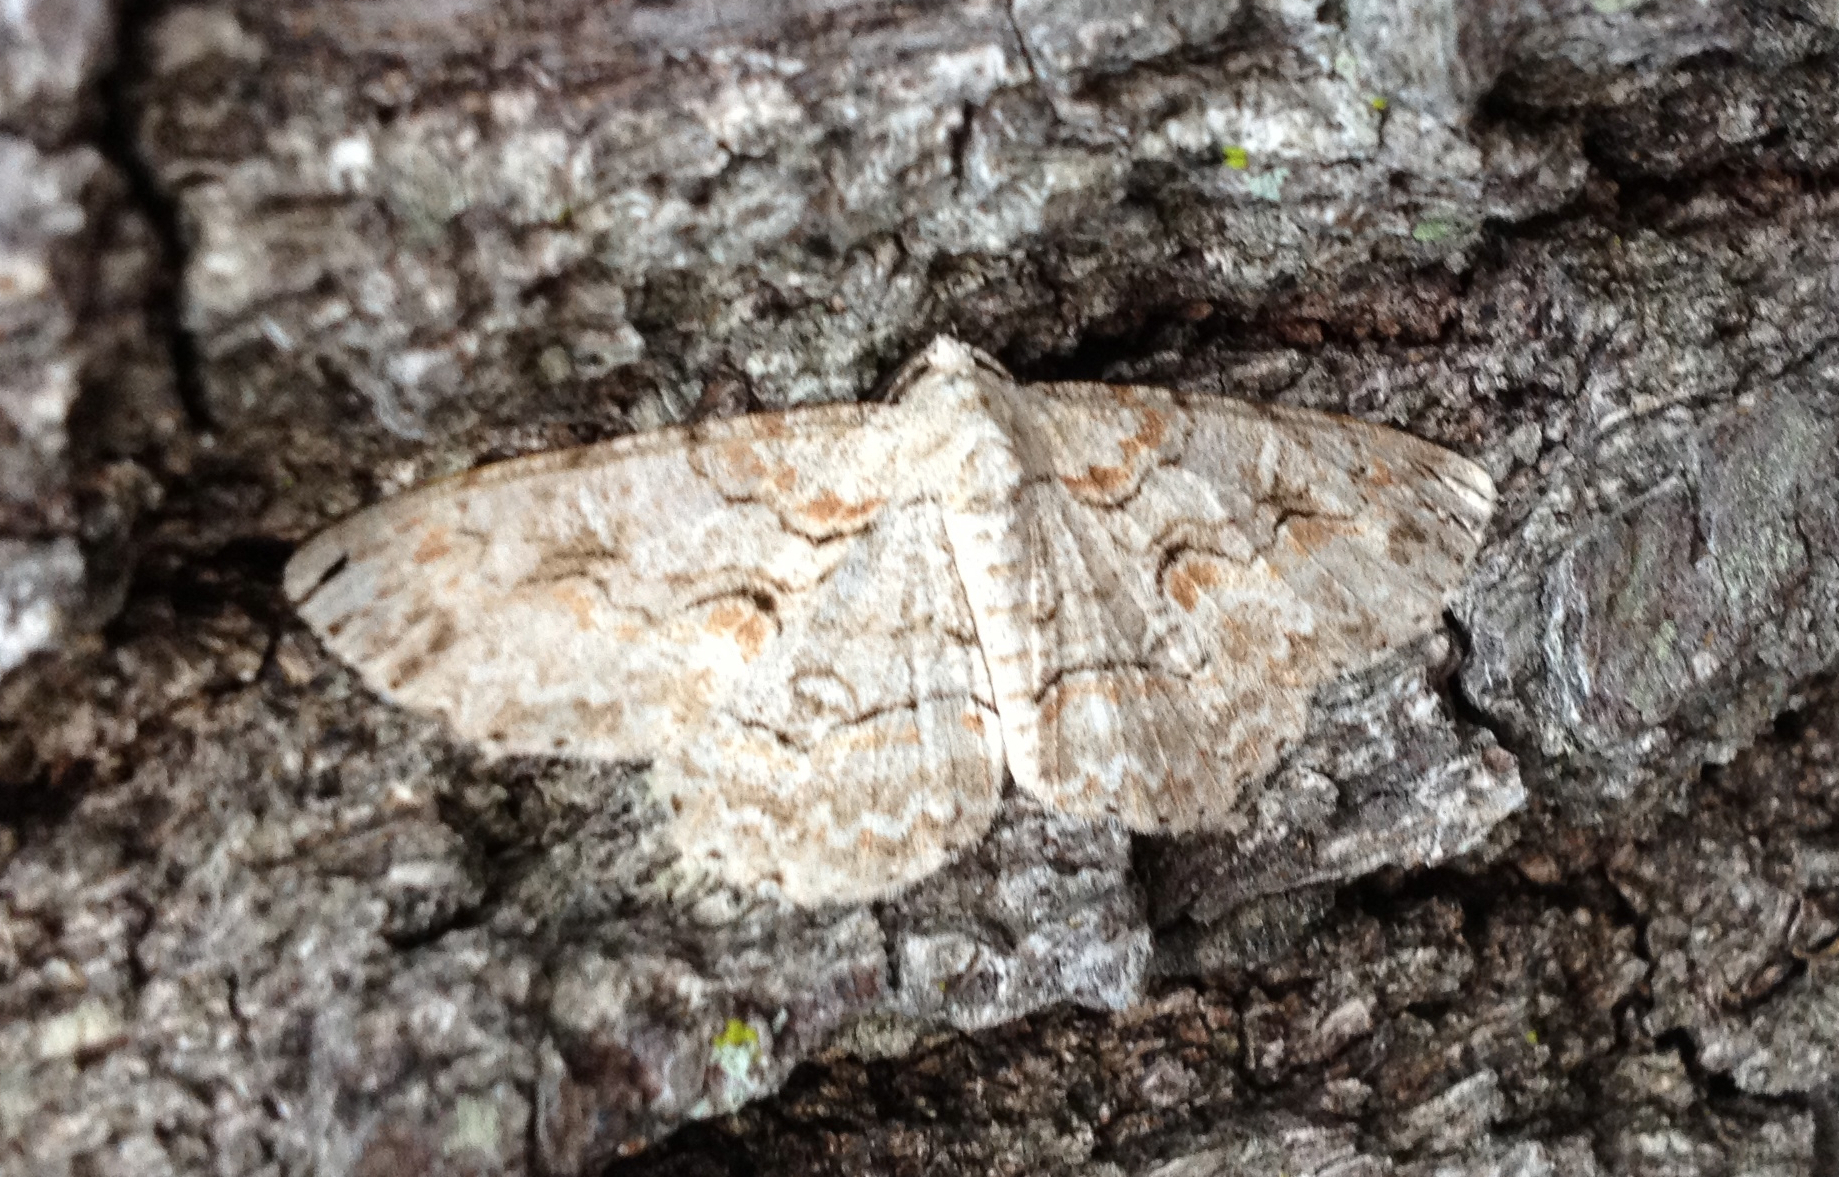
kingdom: Animalia
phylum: Arthropoda
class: Insecta
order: Lepidoptera
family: Geometridae
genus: Iridopsis
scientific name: Iridopsis defectaria
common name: Brown-shaded gray
